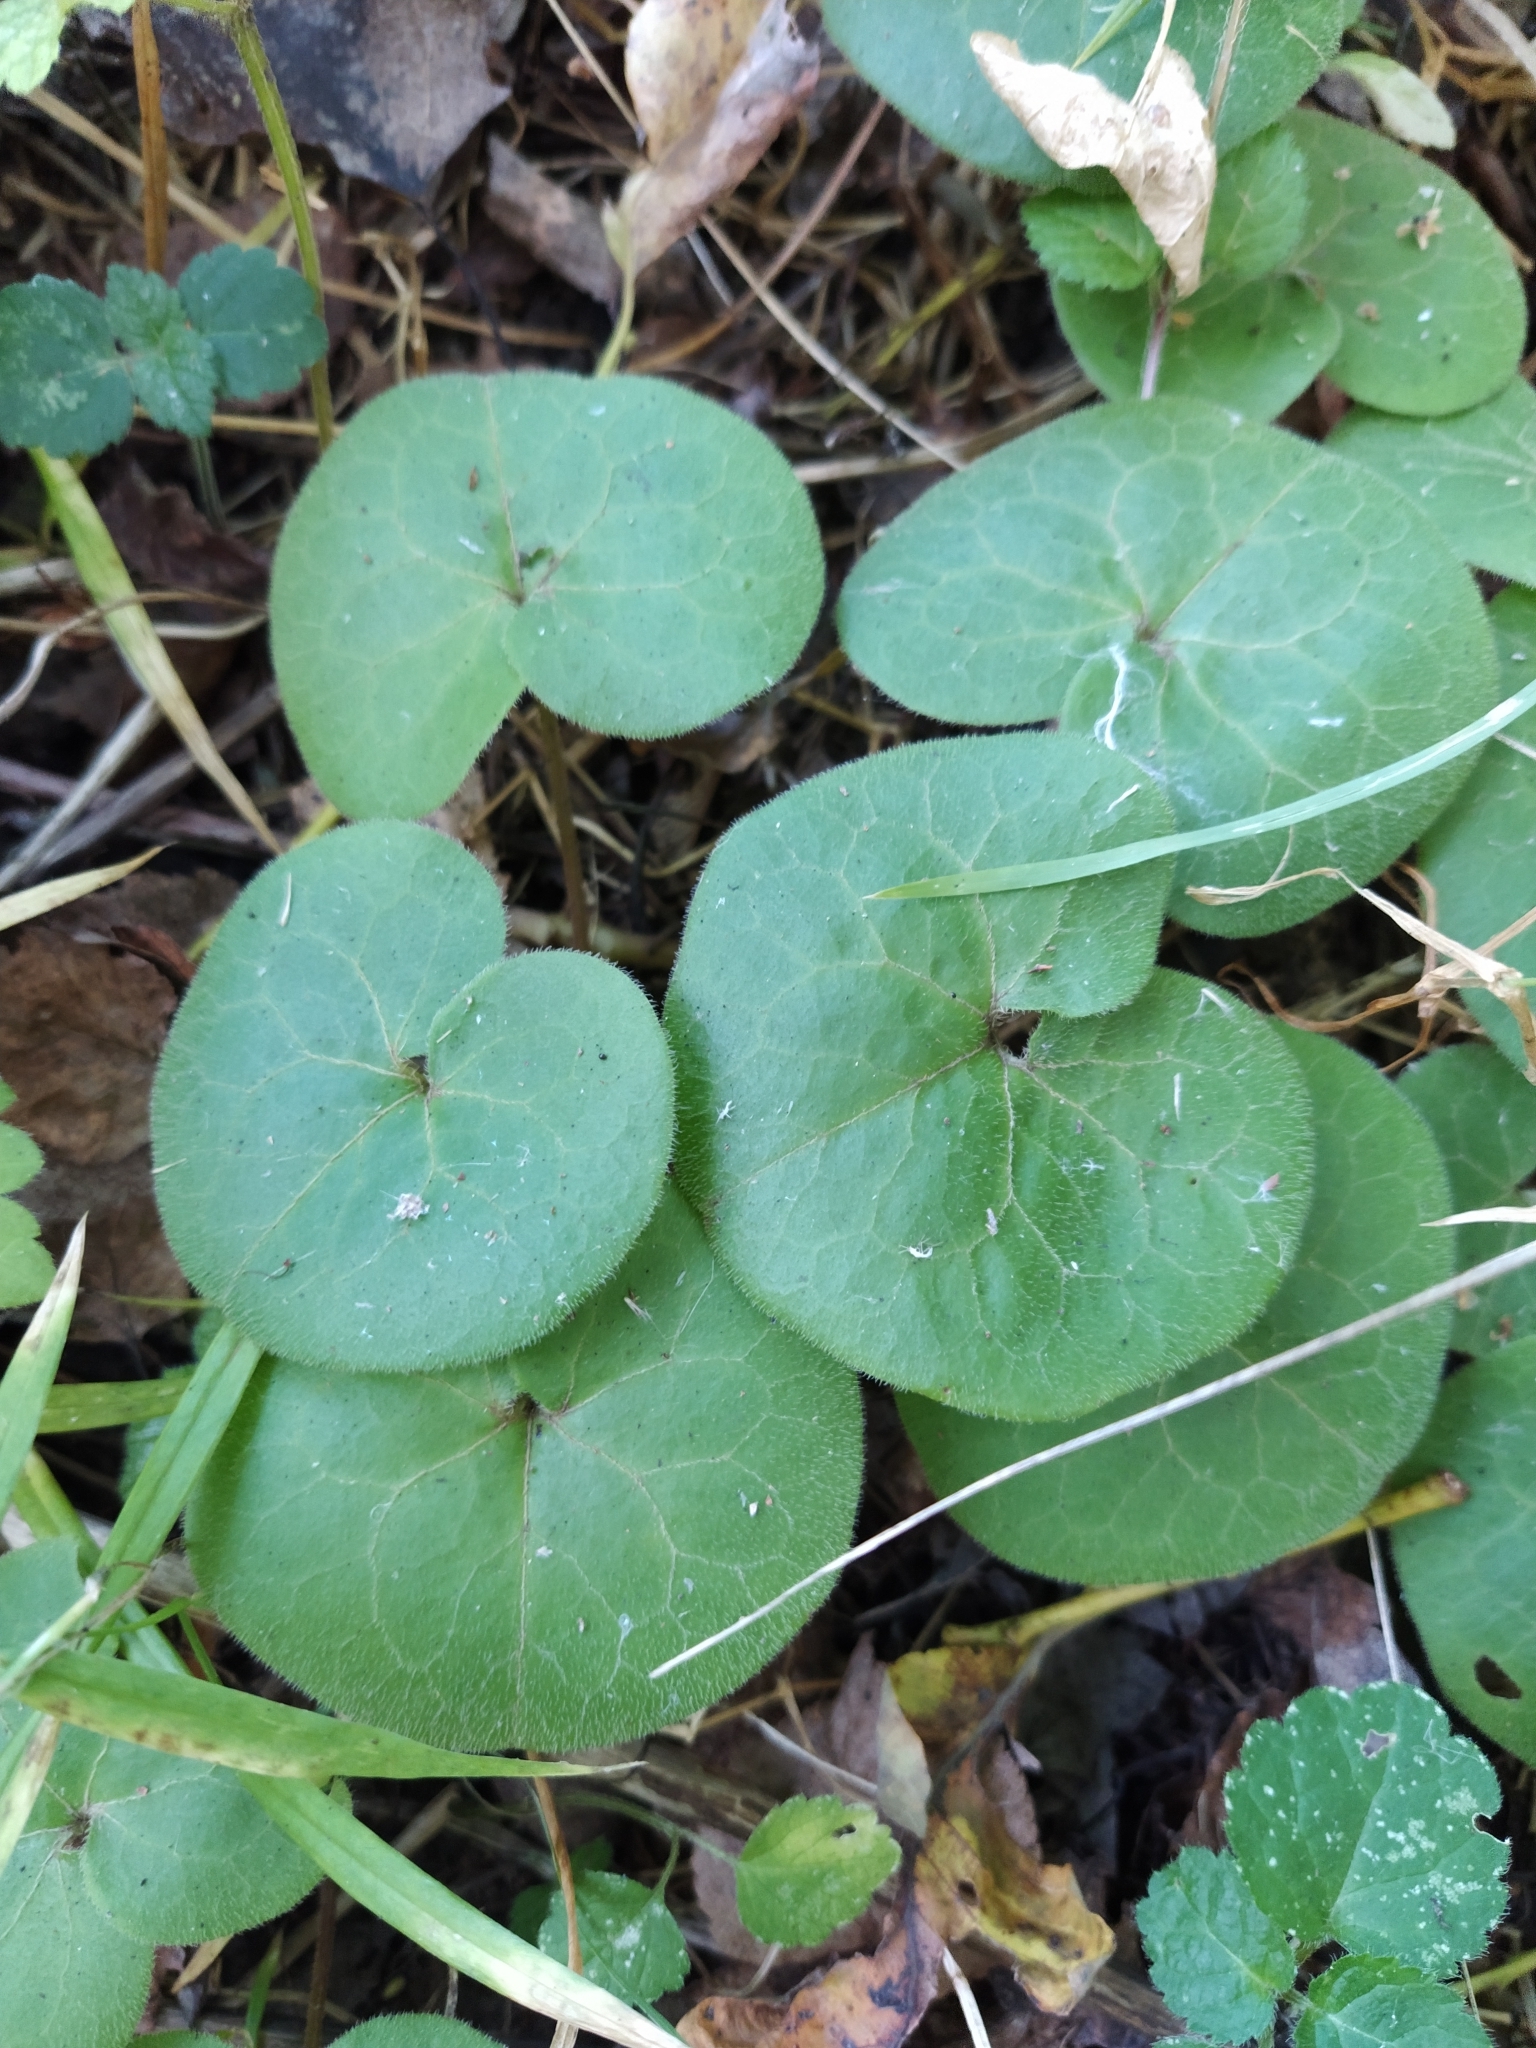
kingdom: Plantae
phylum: Tracheophyta
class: Magnoliopsida
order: Piperales
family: Aristolochiaceae
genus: Asarum
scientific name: Asarum europaeum
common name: Asarabacca
